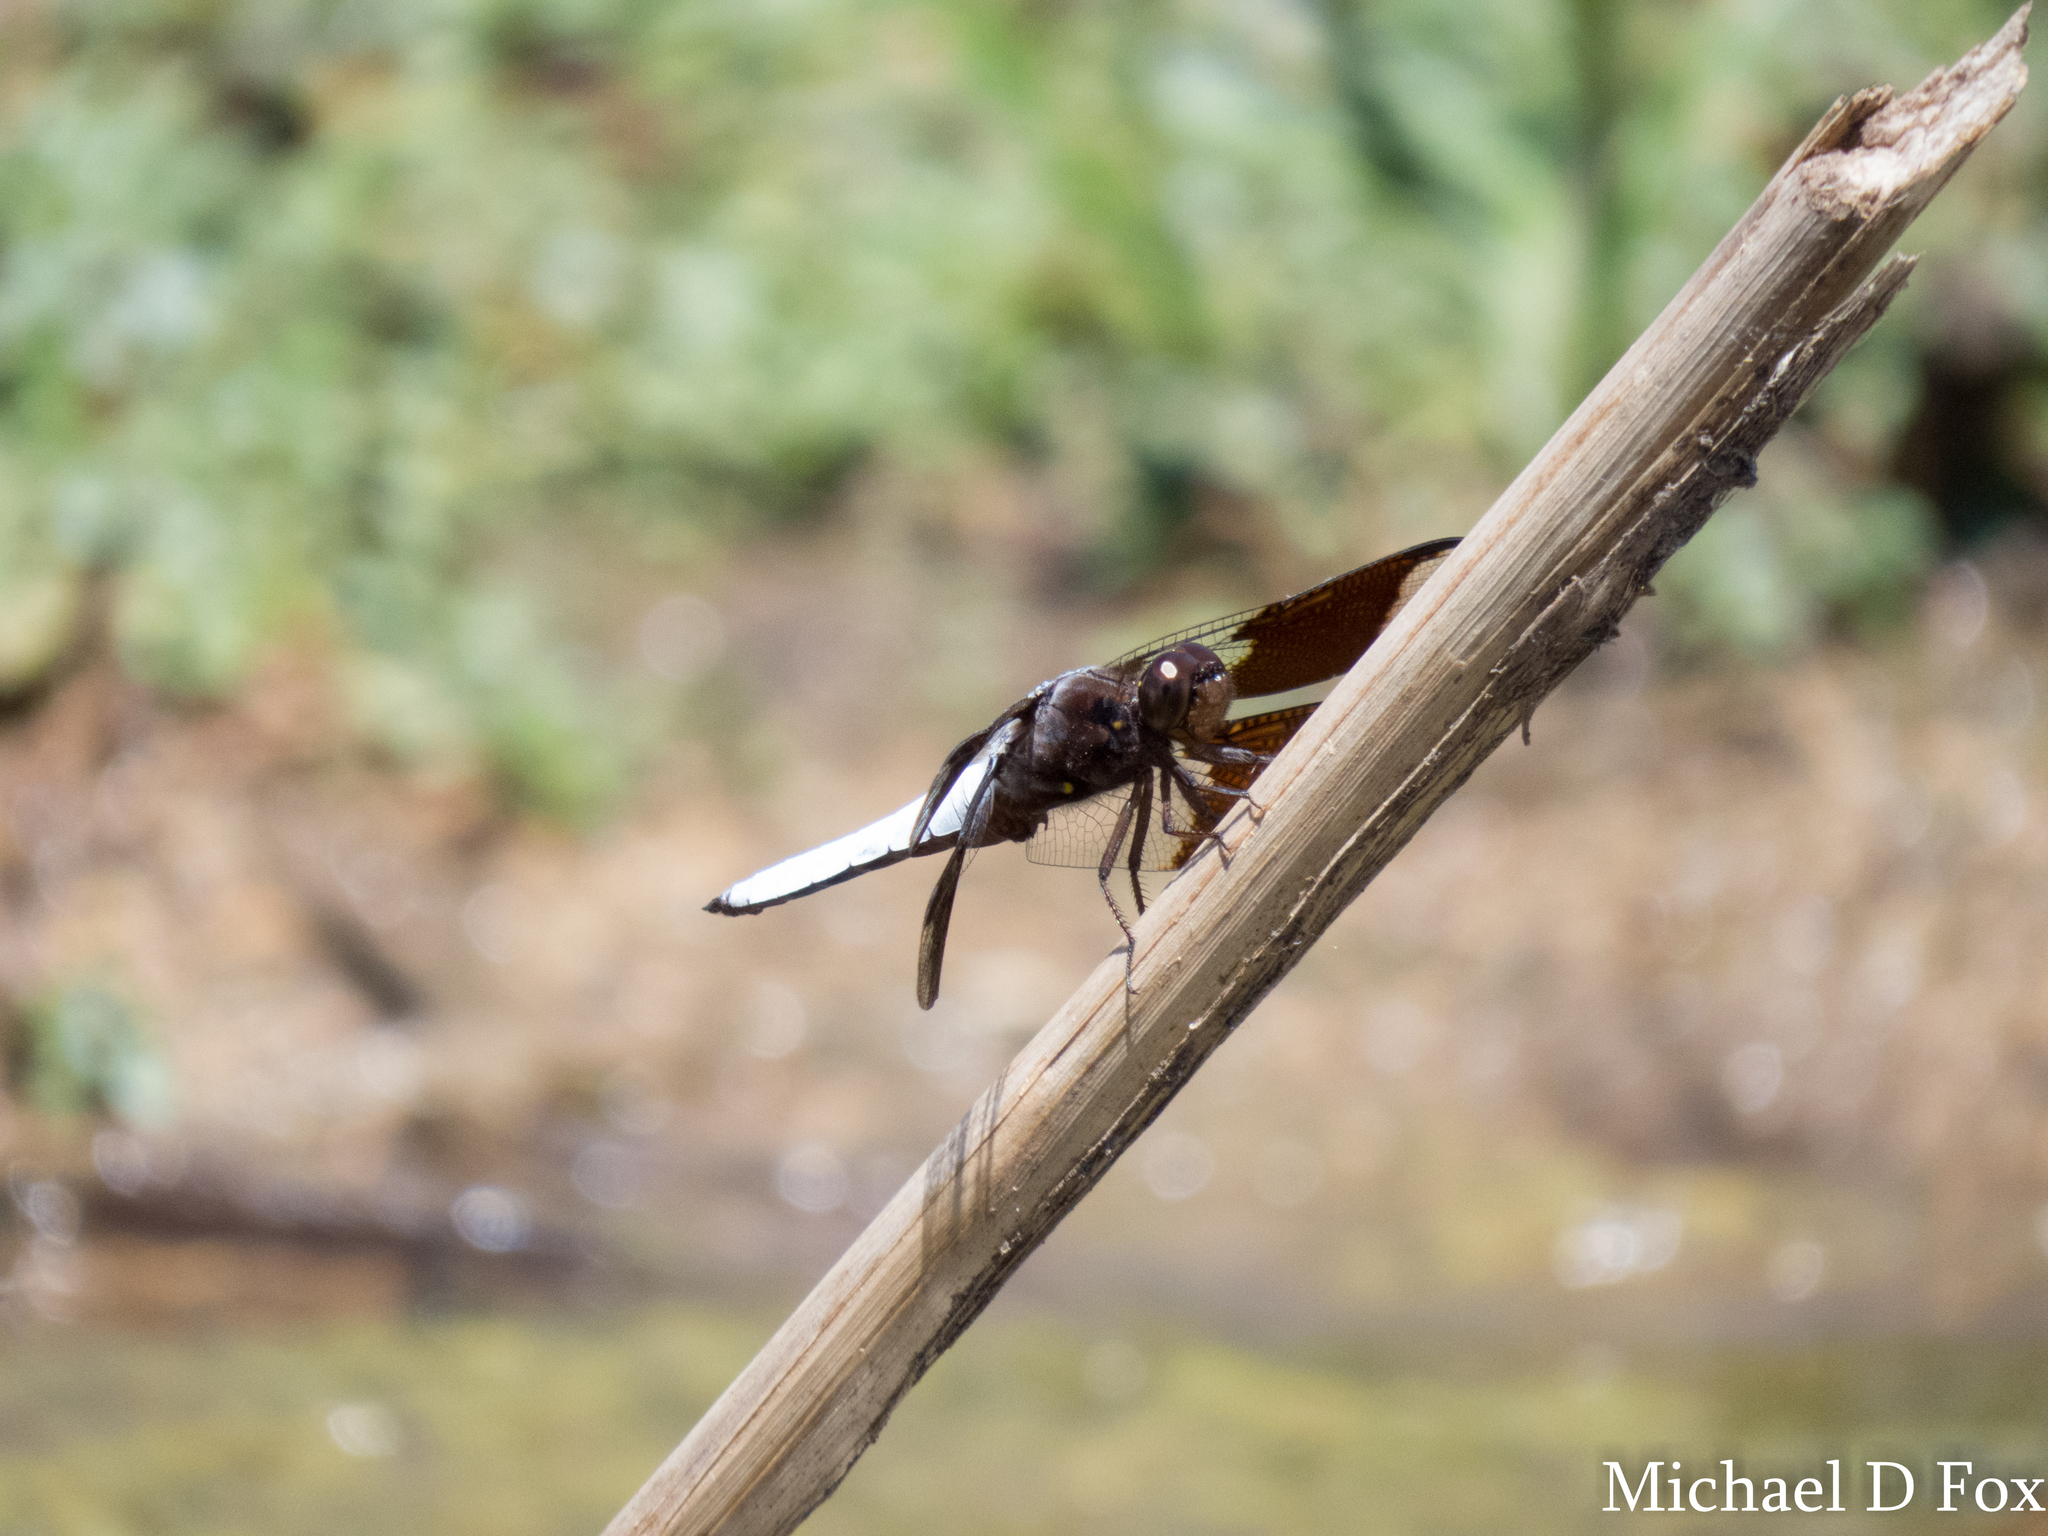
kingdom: Animalia
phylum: Arthropoda
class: Insecta
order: Odonata
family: Libellulidae
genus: Plathemis
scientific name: Plathemis lydia
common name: Common whitetail
